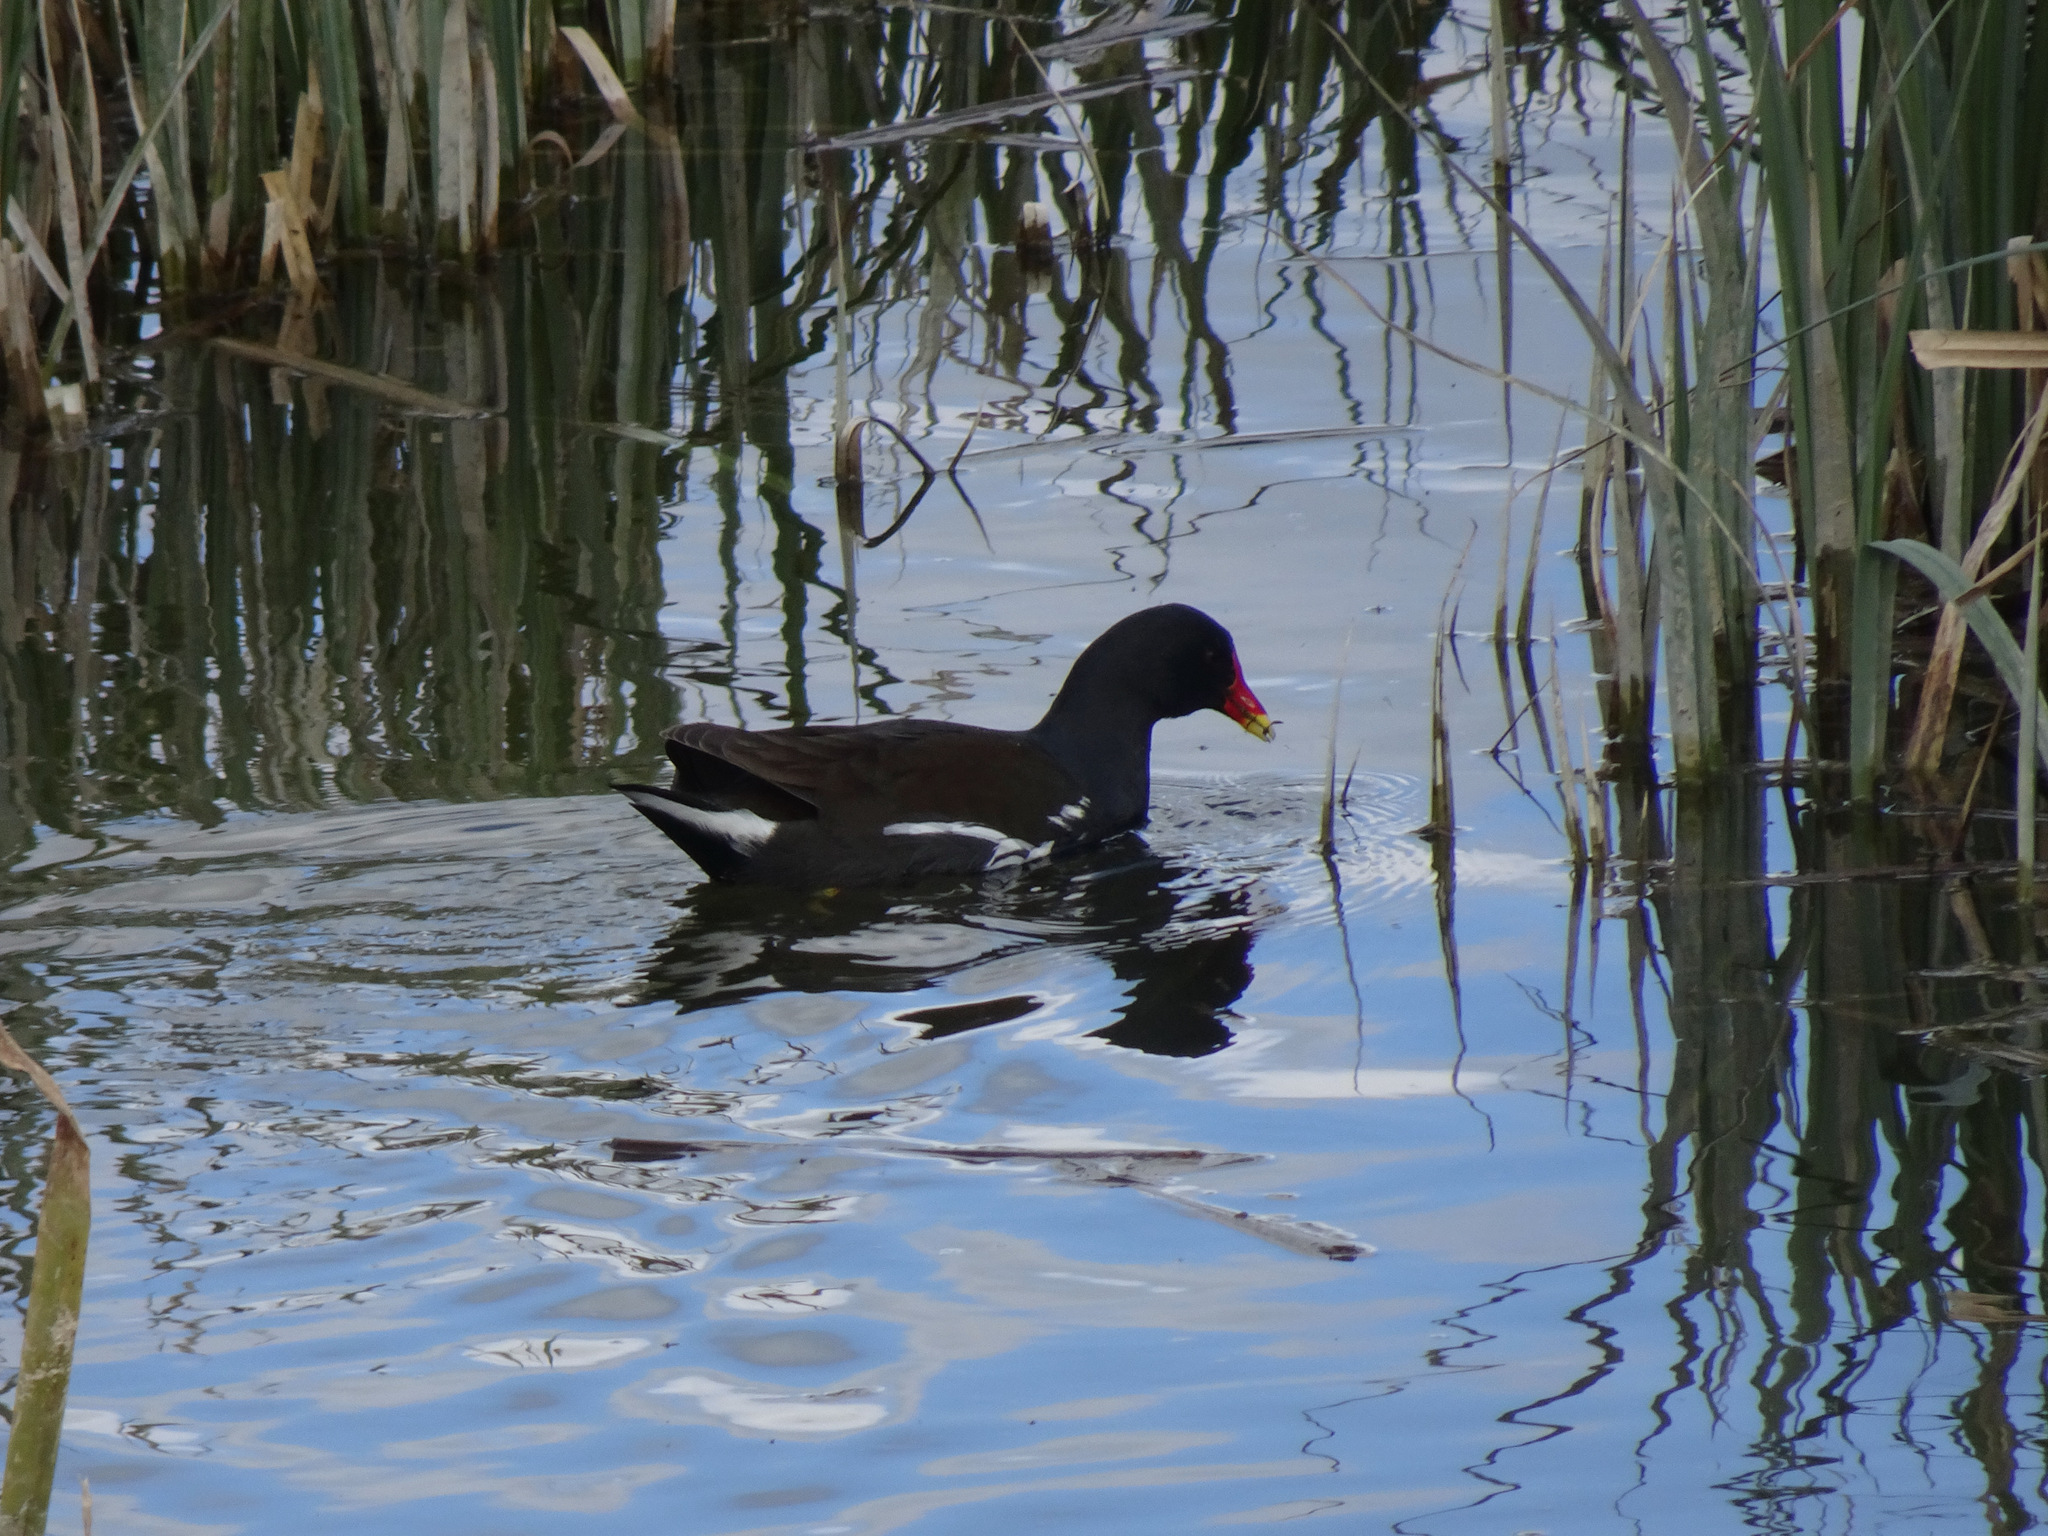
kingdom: Animalia
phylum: Chordata
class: Aves
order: Gruiformes
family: Rallidae
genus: Gallinula
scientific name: Gallinula chloropus
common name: Common moorhen
